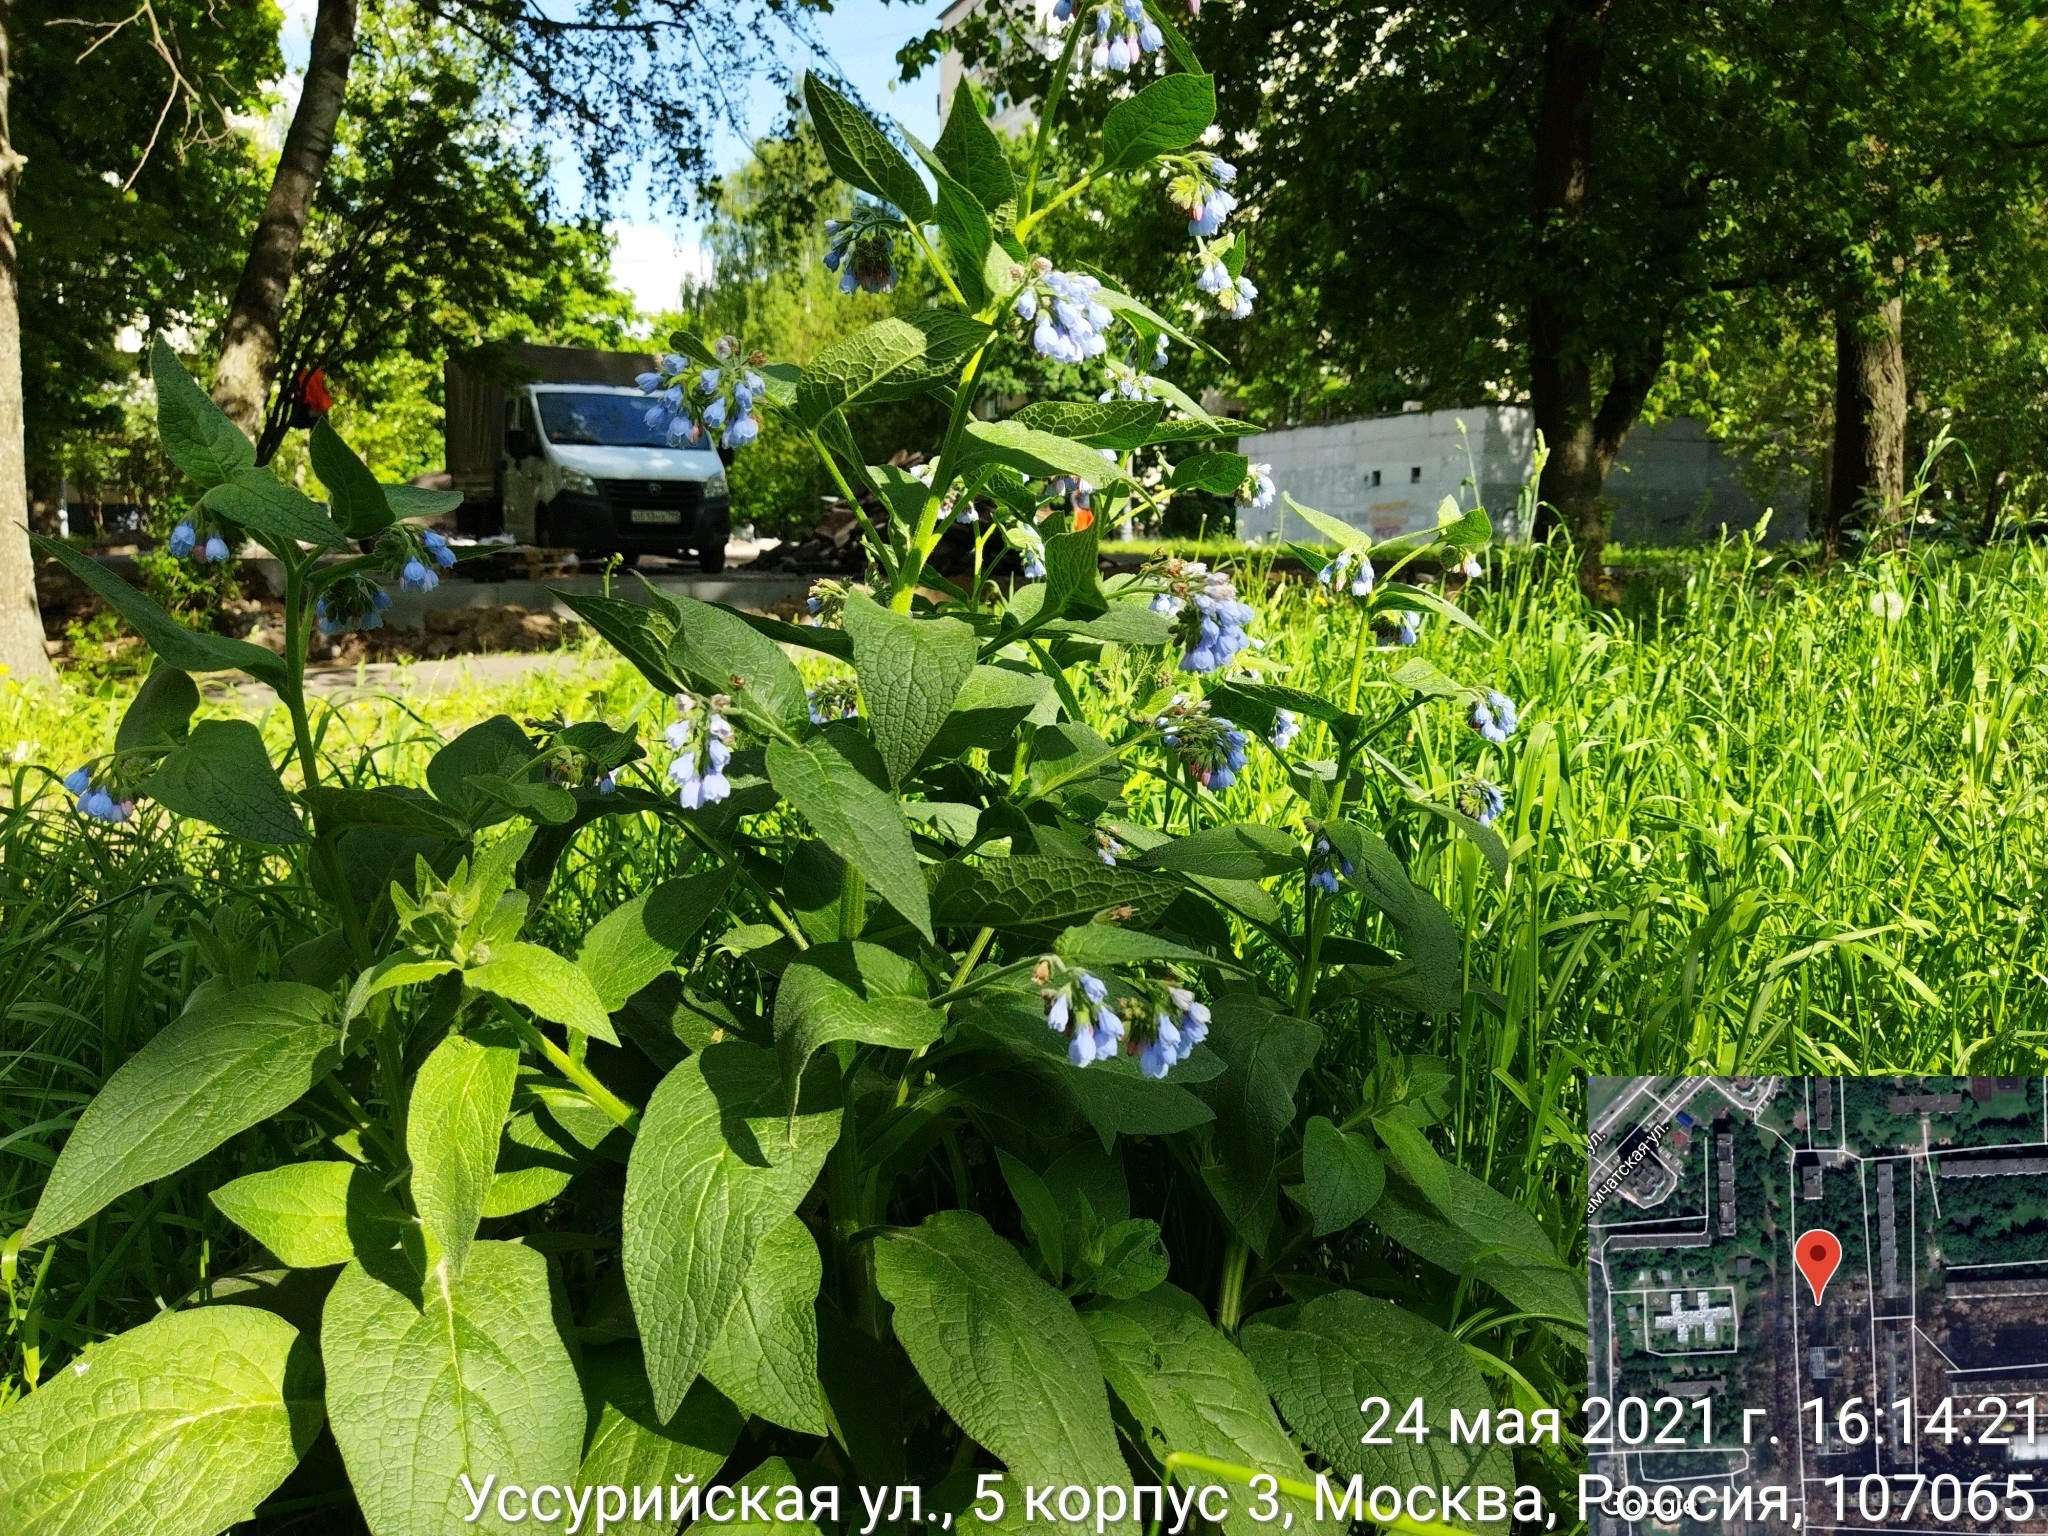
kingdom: Plantae
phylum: Tracheophyta
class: Magnoliopsida
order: Boraginales
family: Boraginaceae
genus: Symphytum
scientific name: Symphytum caucasicum
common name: Caucasian comfrey
